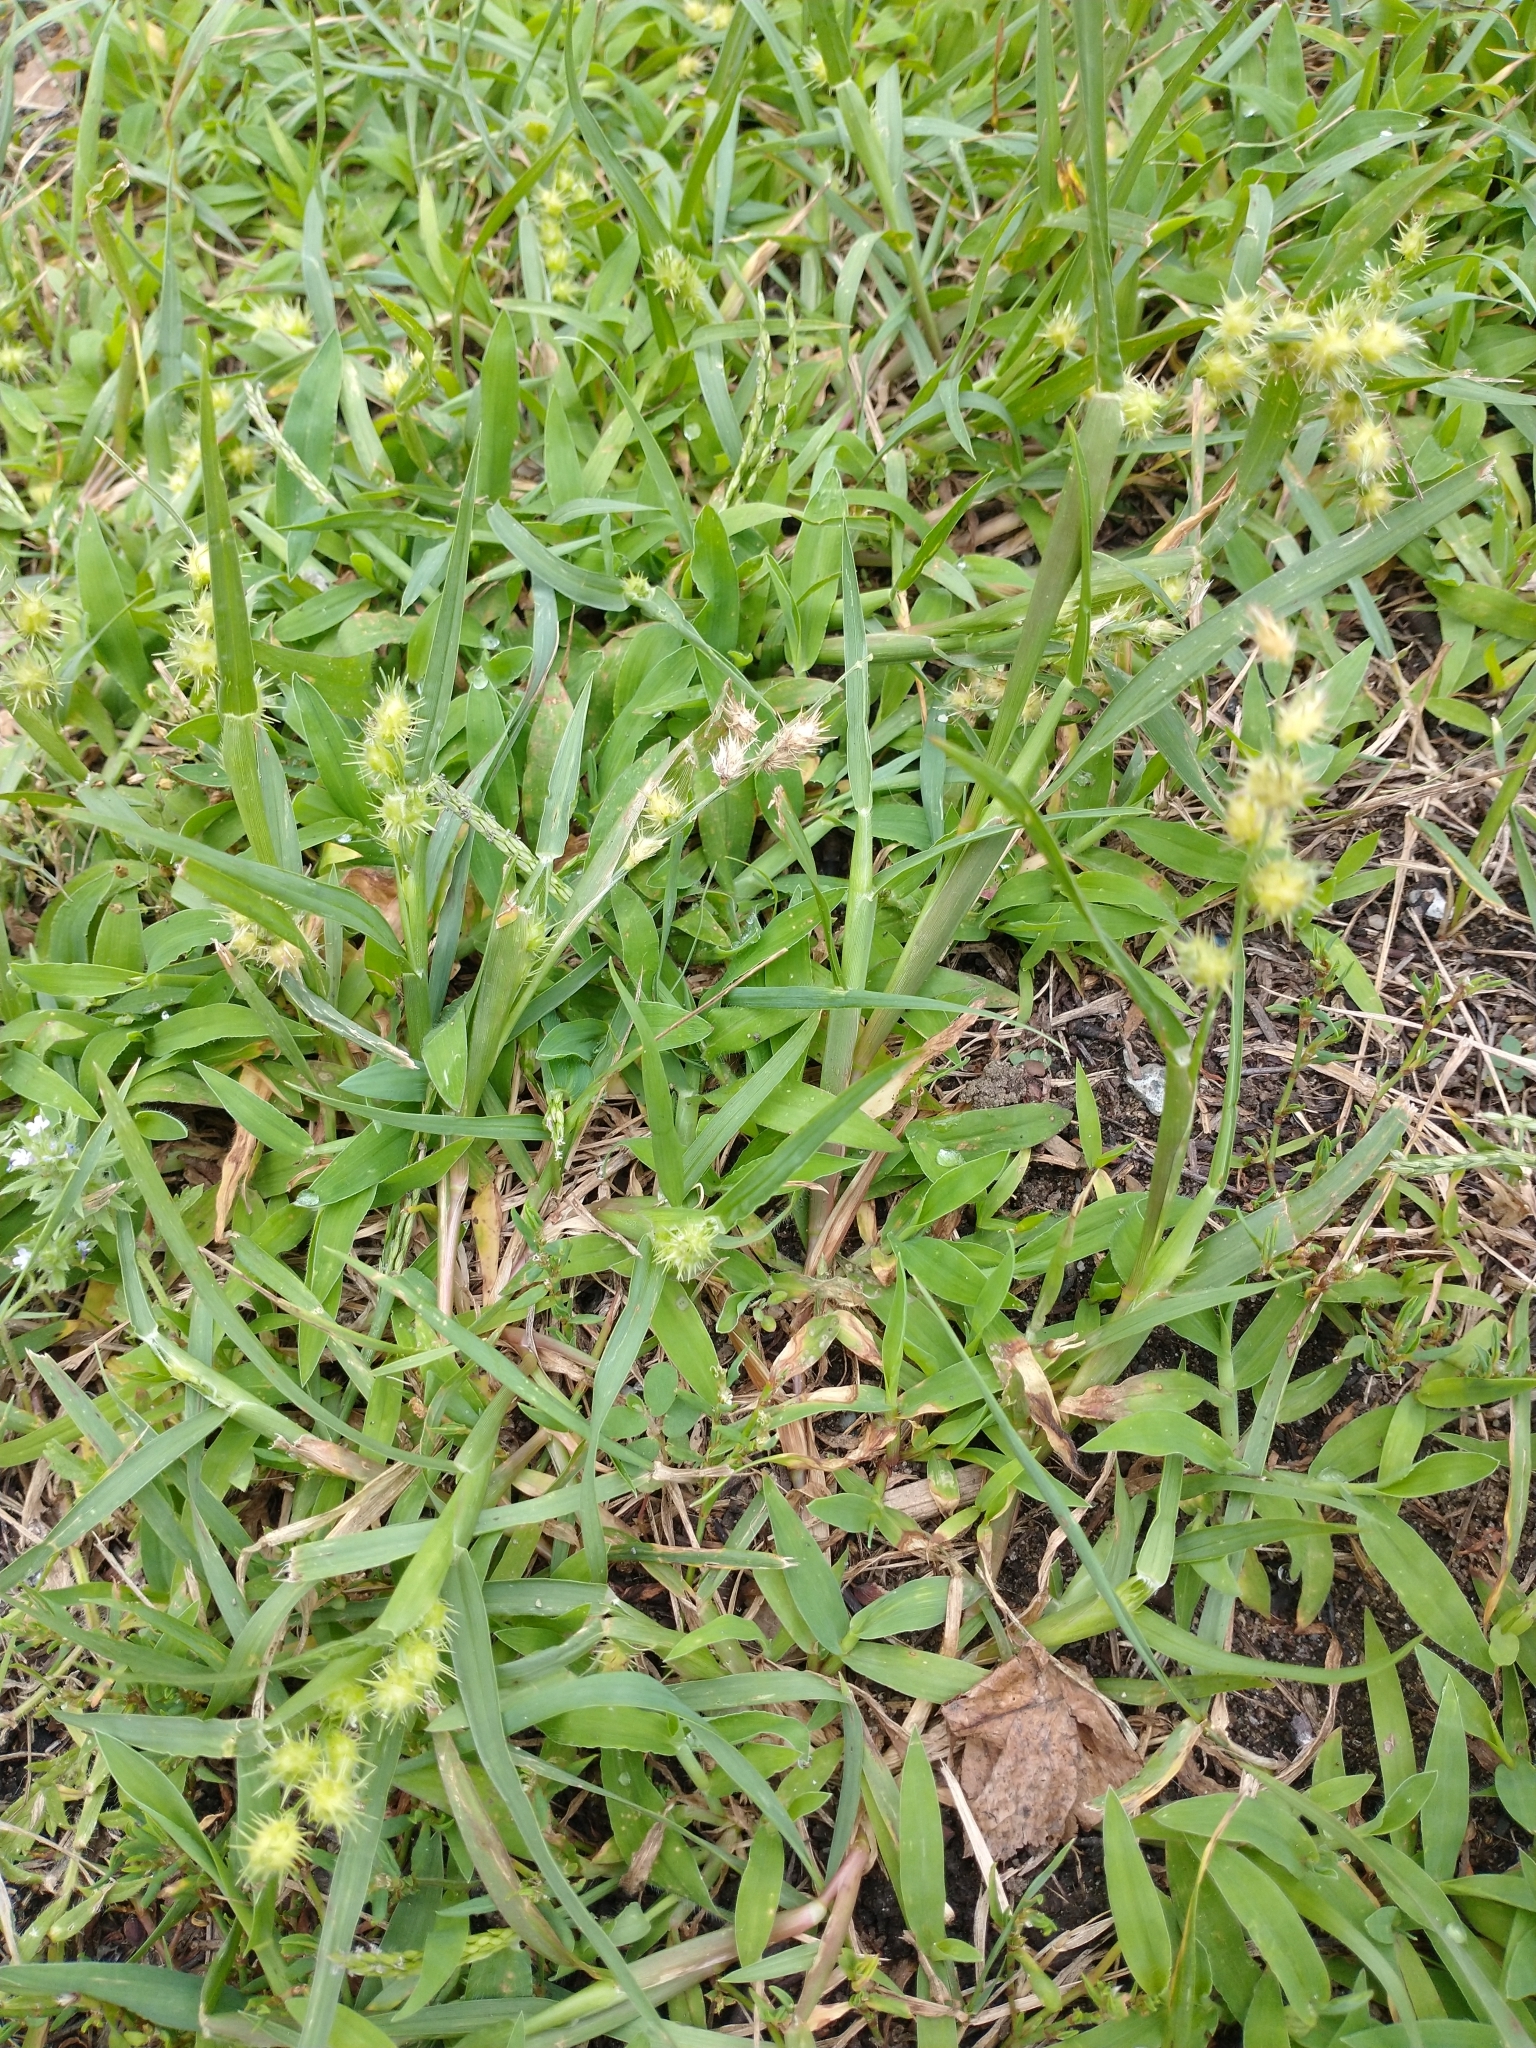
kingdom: Plantae
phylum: Tracheophyta
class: Liliopsida
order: Poales
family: Poaceae
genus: Cenchrus
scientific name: Cenchrus longispinus
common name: Mat sandbur
